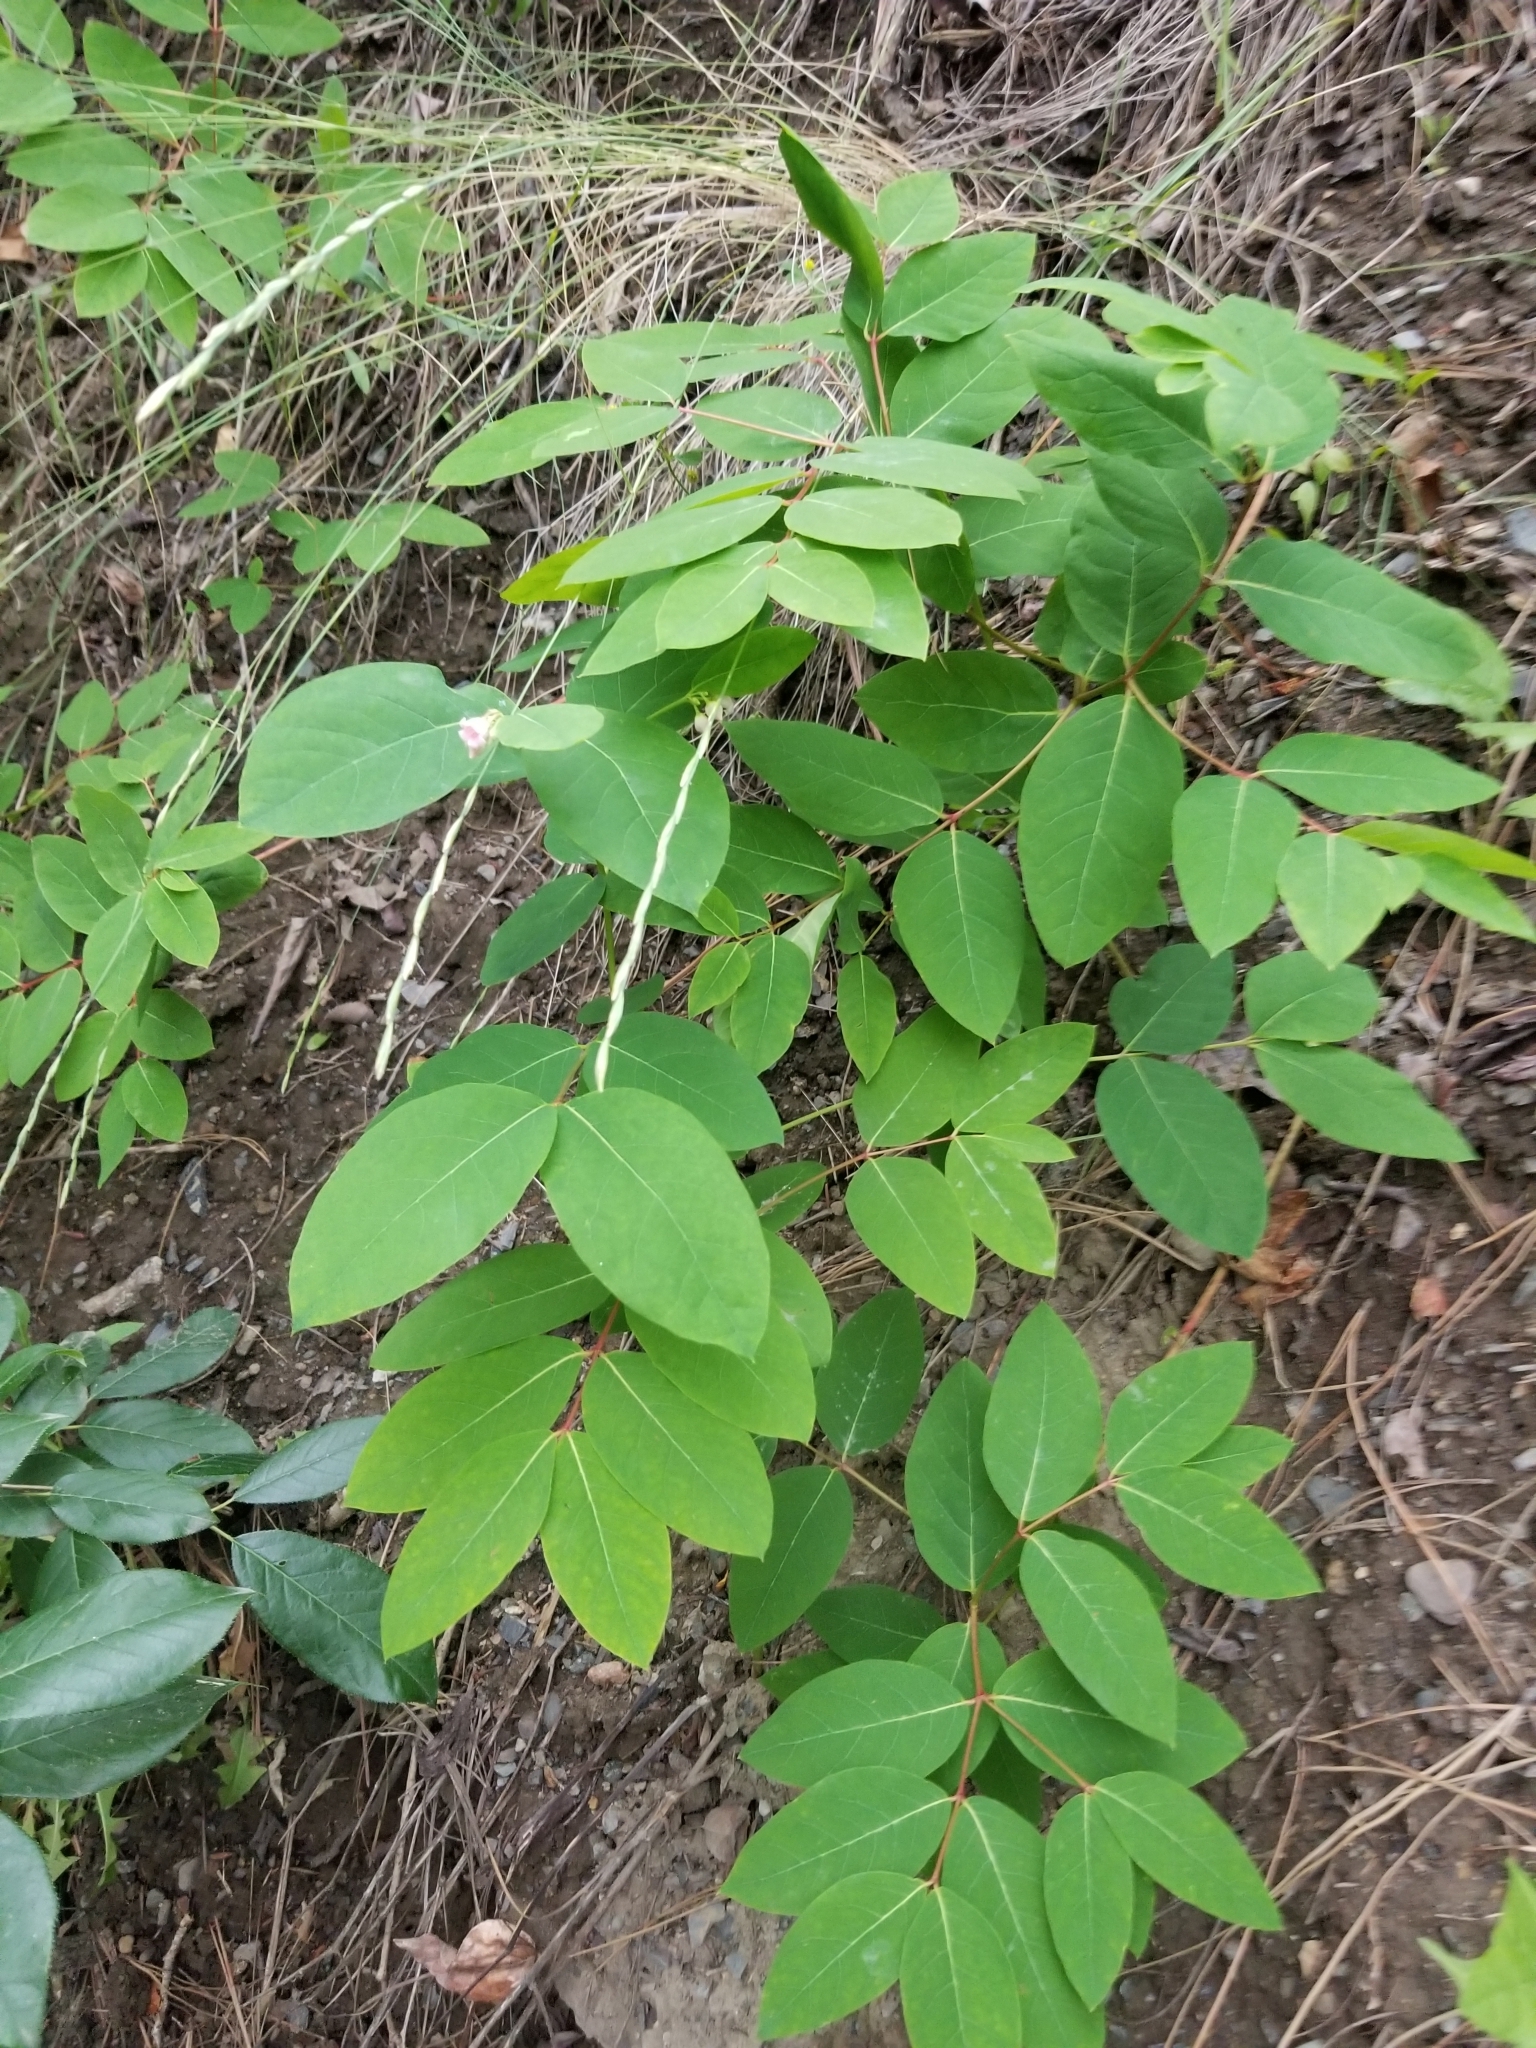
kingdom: Plantae
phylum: Tracheophyta
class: Magnoliopsida
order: Gentianales
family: Apocynaceae
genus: Apocynum
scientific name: Apocynum androsaemifolium
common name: Spreading dogbane
